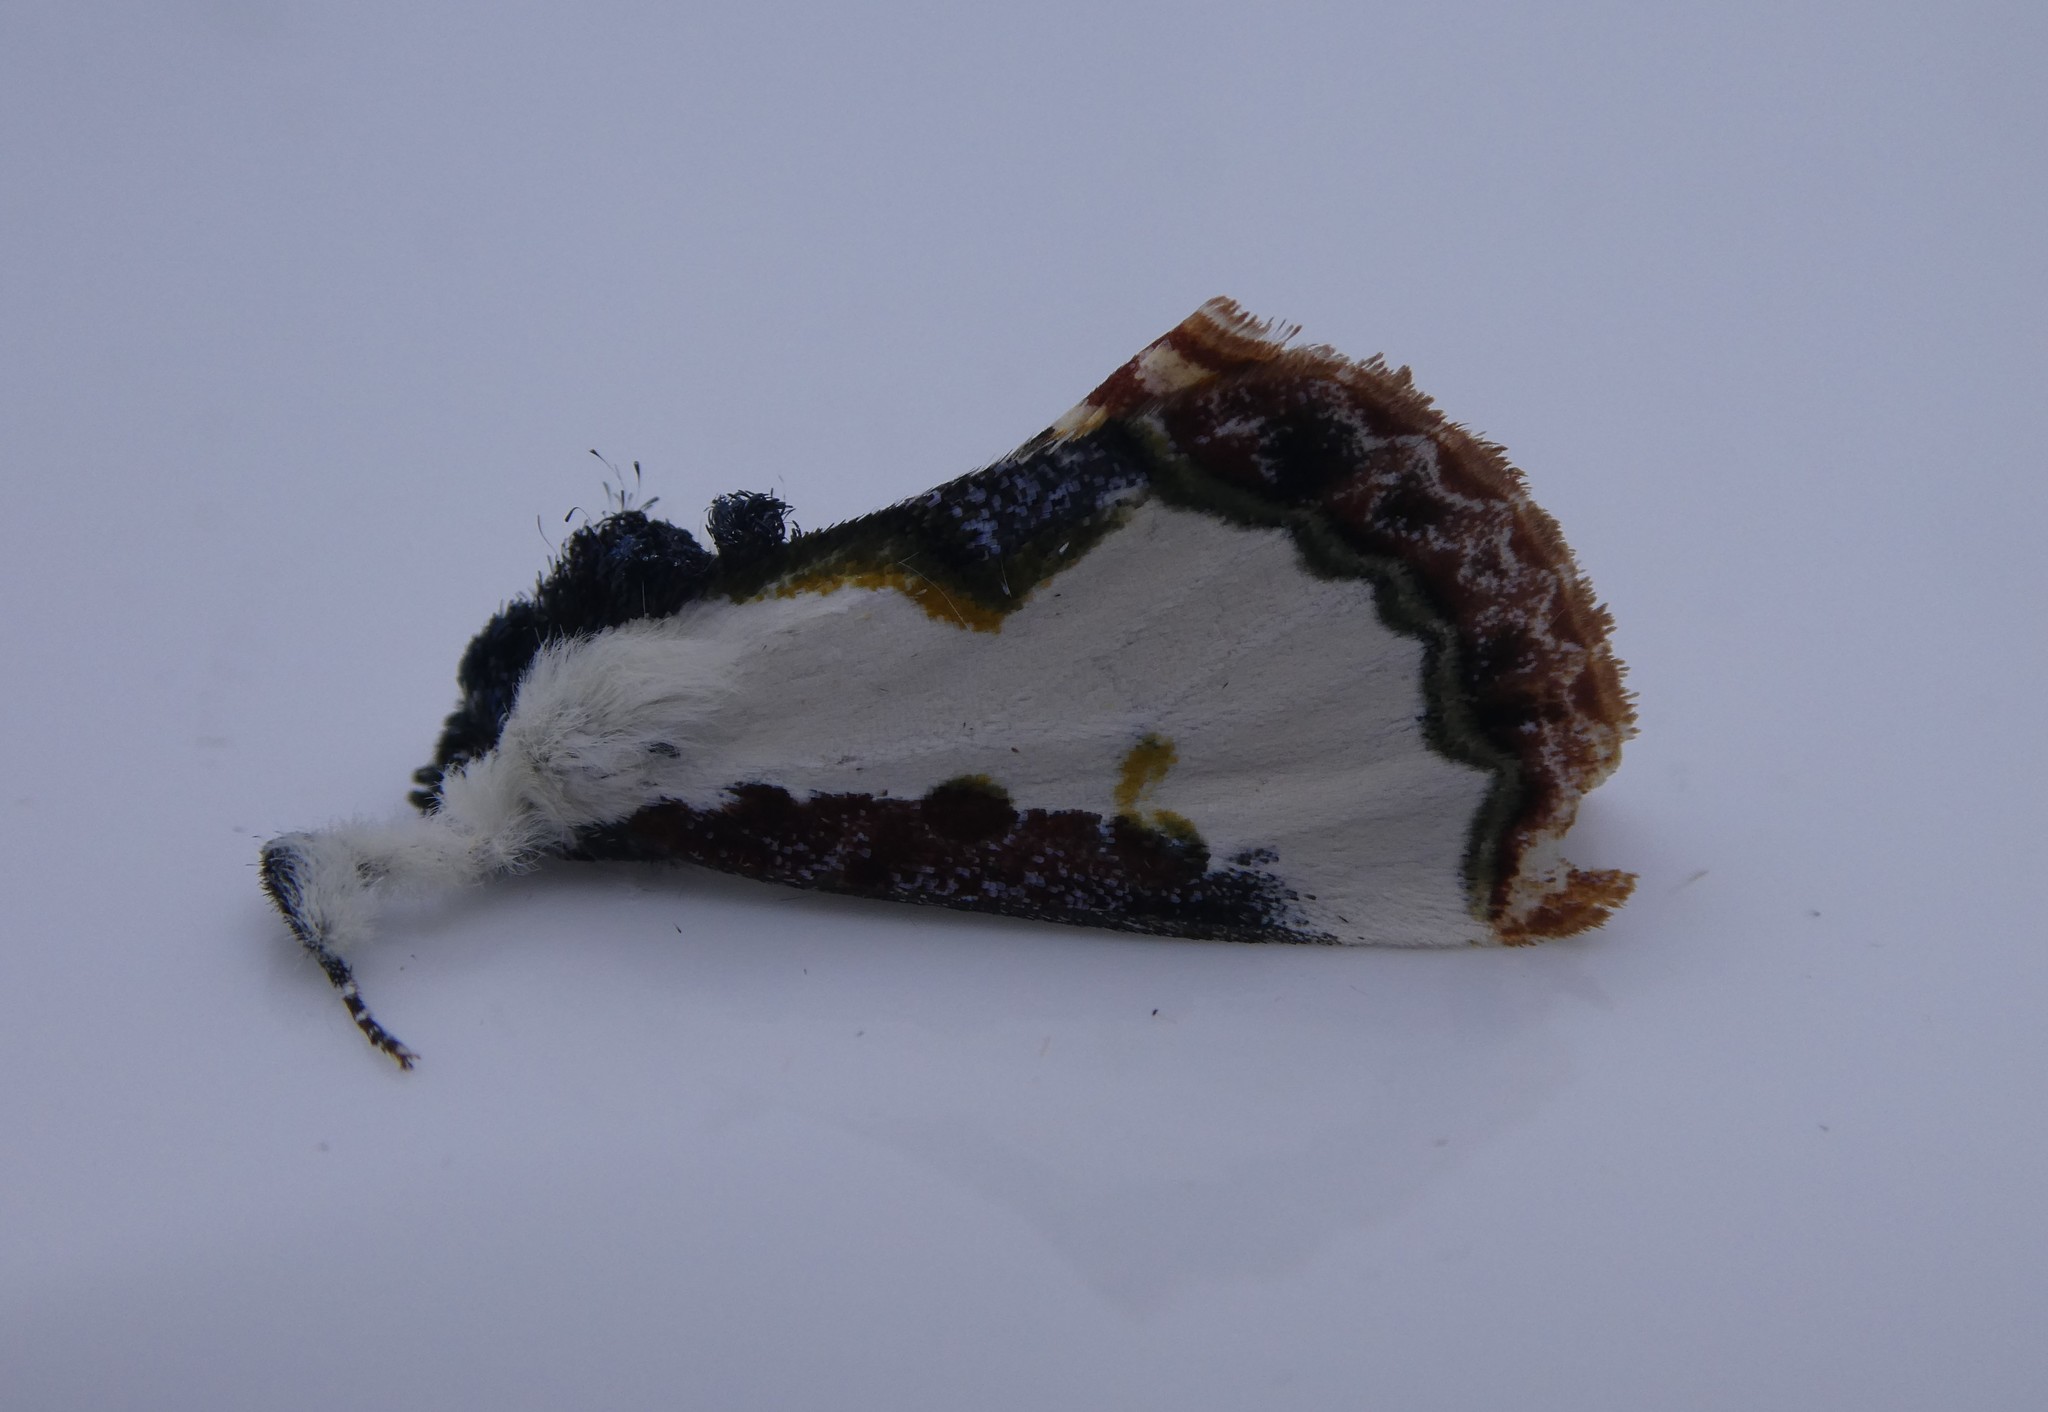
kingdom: Animalia
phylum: Arthropoda
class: Insecta
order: Lepidoptera
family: Noctuidae
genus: Eudryas
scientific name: Eudryas unio
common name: Pearly wood-nymph
